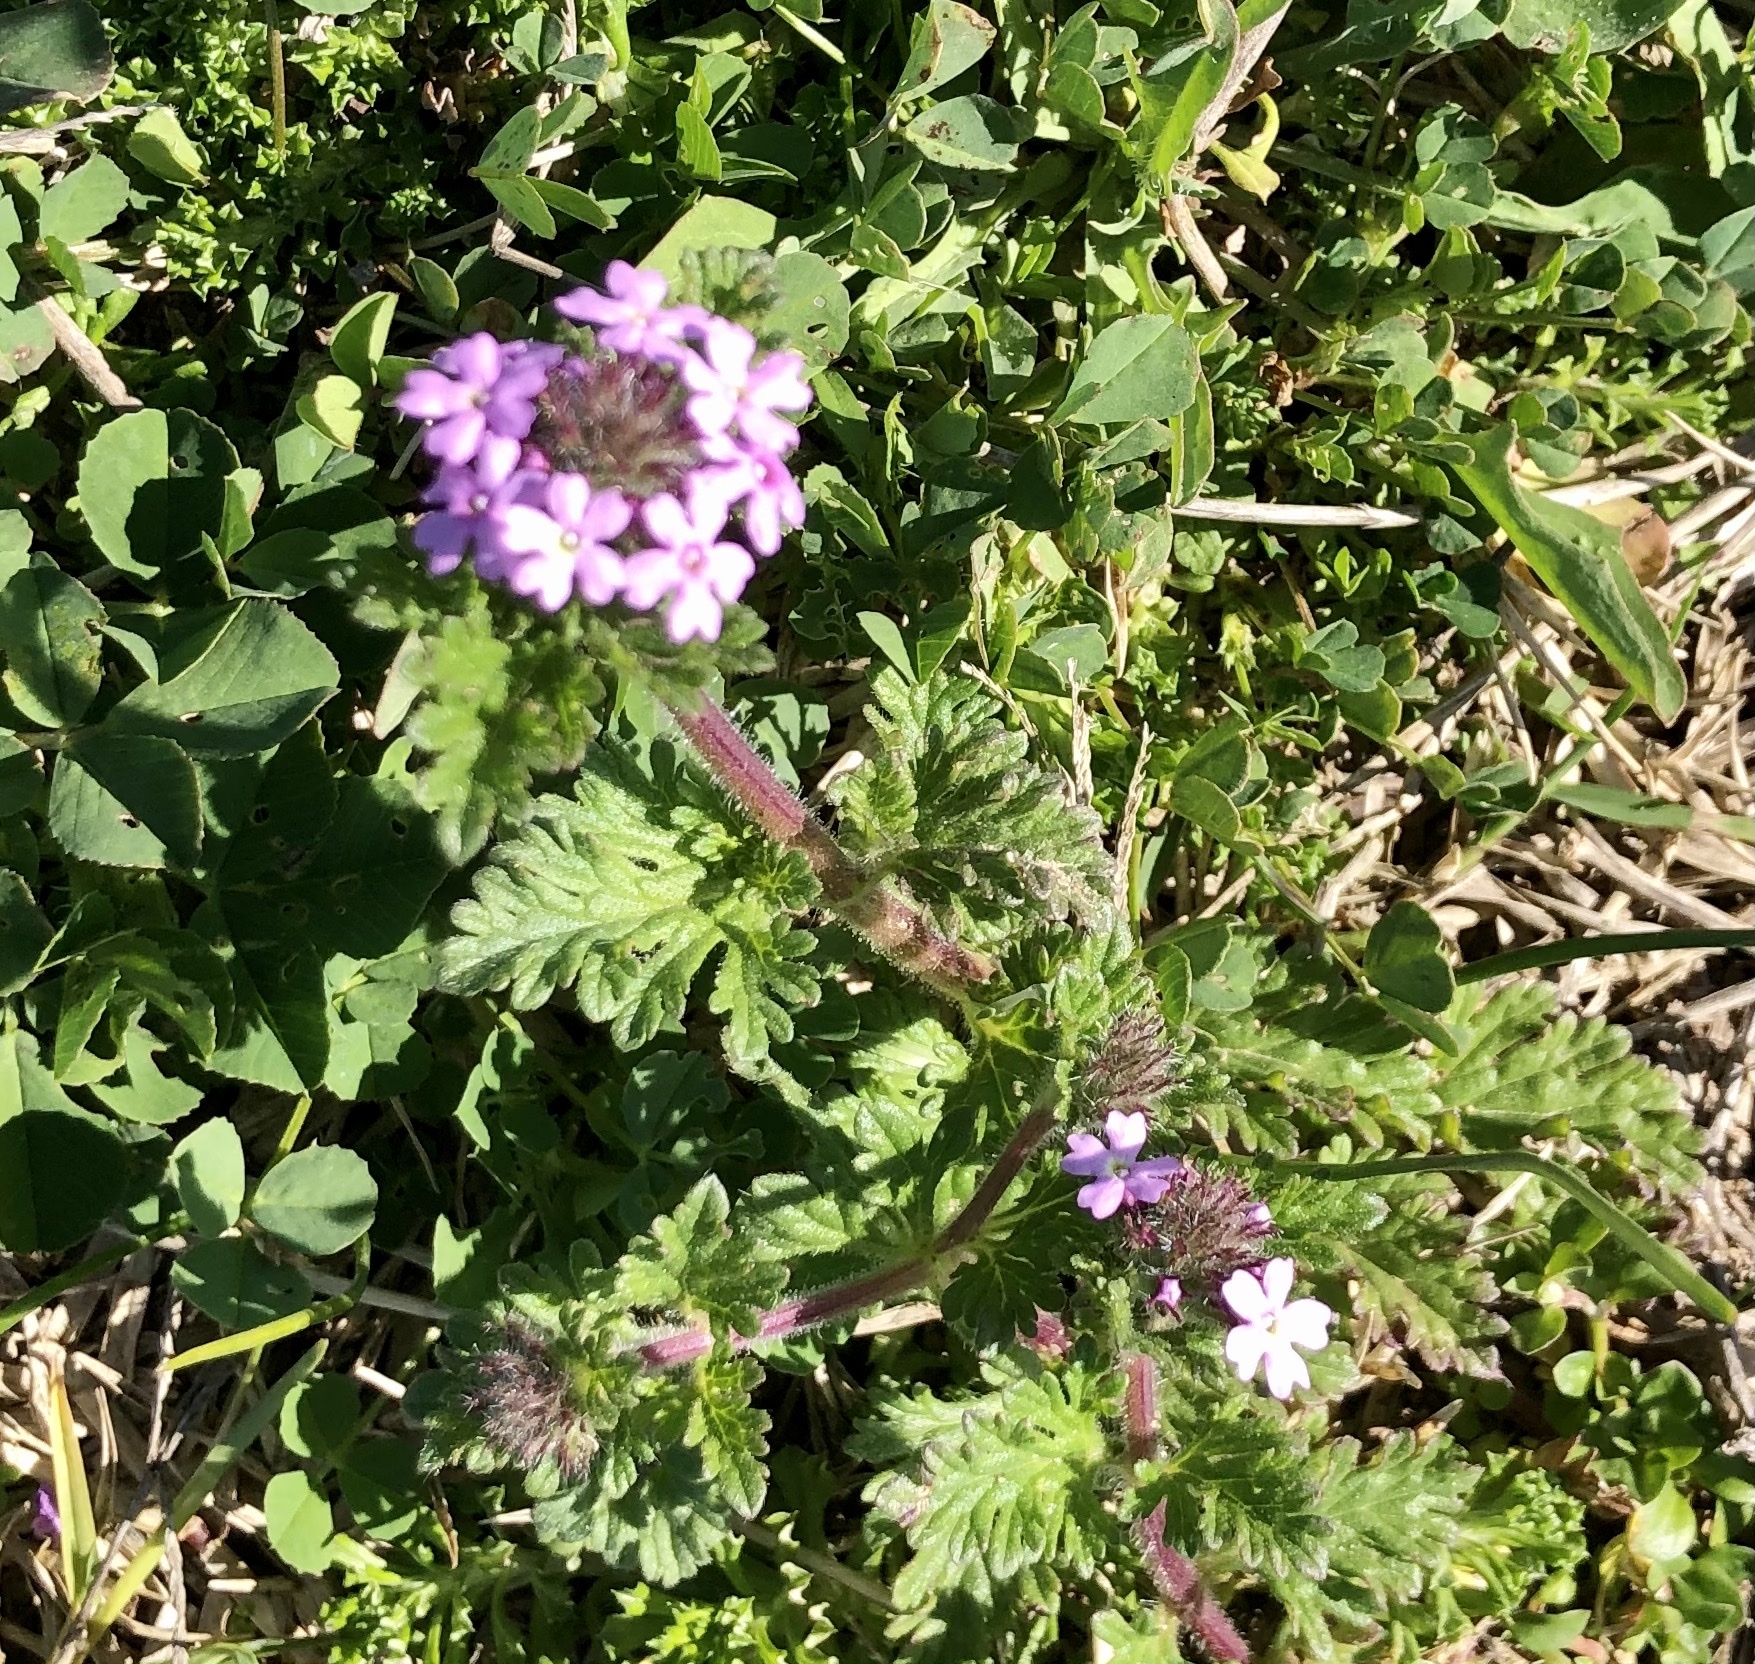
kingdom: Plantae
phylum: Tracheophyta
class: Magnoliopsida
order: Lamiales
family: Verbenaceae
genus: Verbena
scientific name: Verbena pumila
